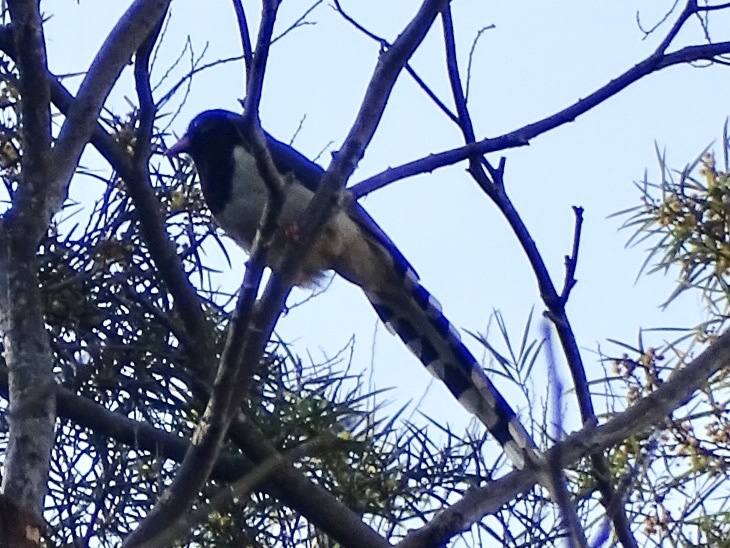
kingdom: Animalia
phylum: Chordata
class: Aves
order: Passeriformes
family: Corvidae
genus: Urocissa
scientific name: Urocissa erythroryncha
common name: Red-billed blue magpie
